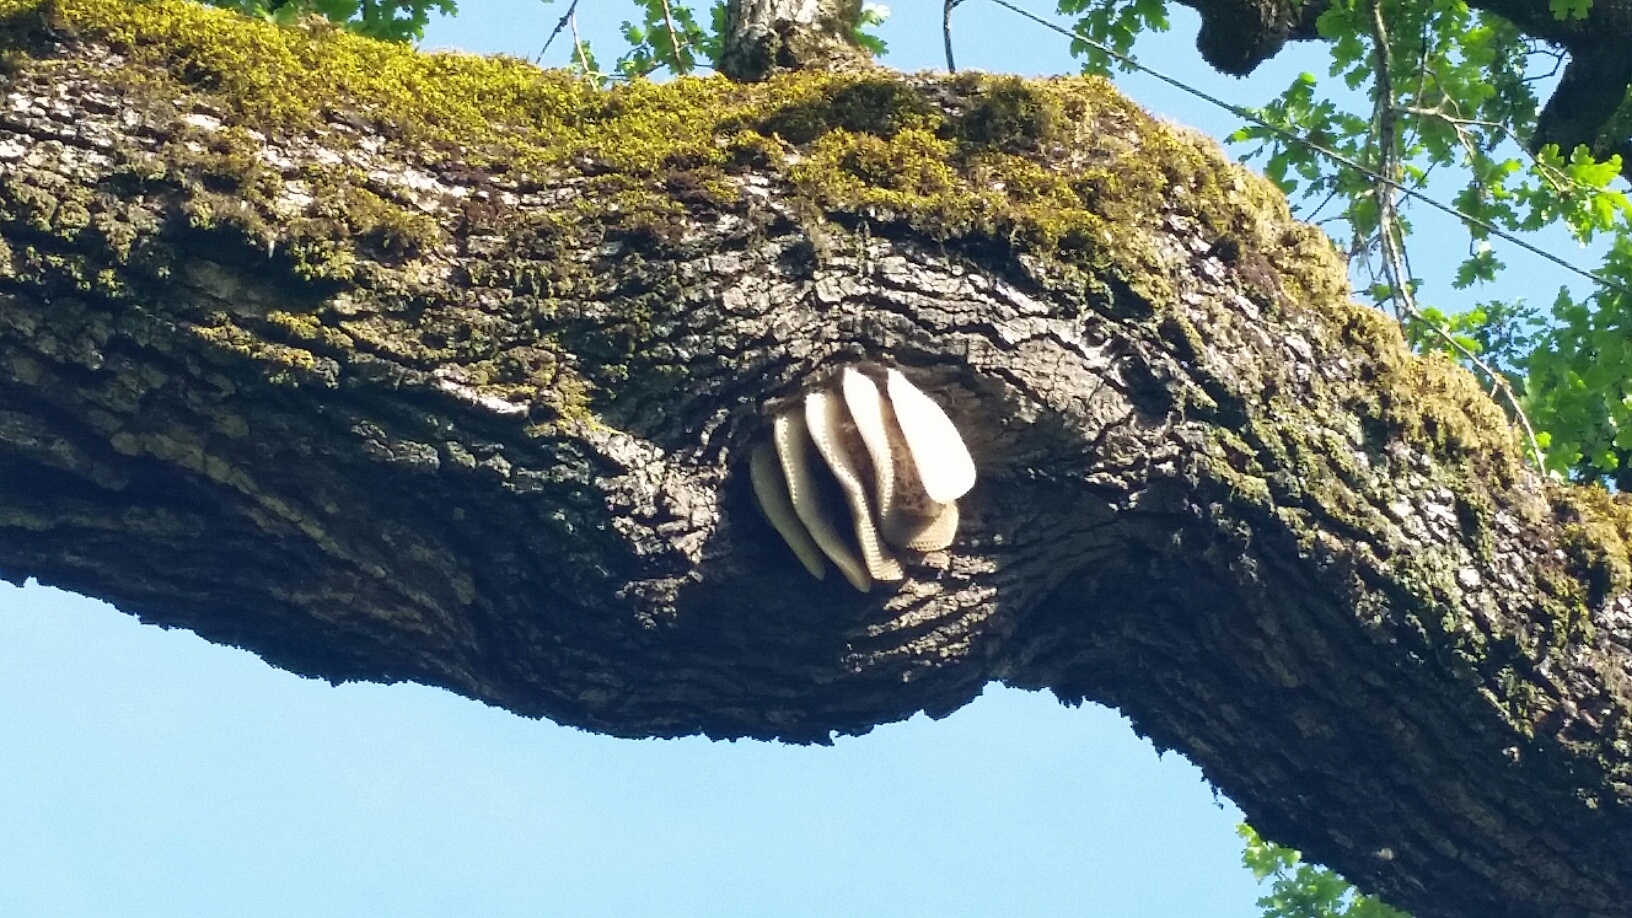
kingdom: Animalia
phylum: Arthropoda
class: Insecta
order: Hymenoptera
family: Apidae
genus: Apis
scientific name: Apis mellifera
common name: Honey bee
